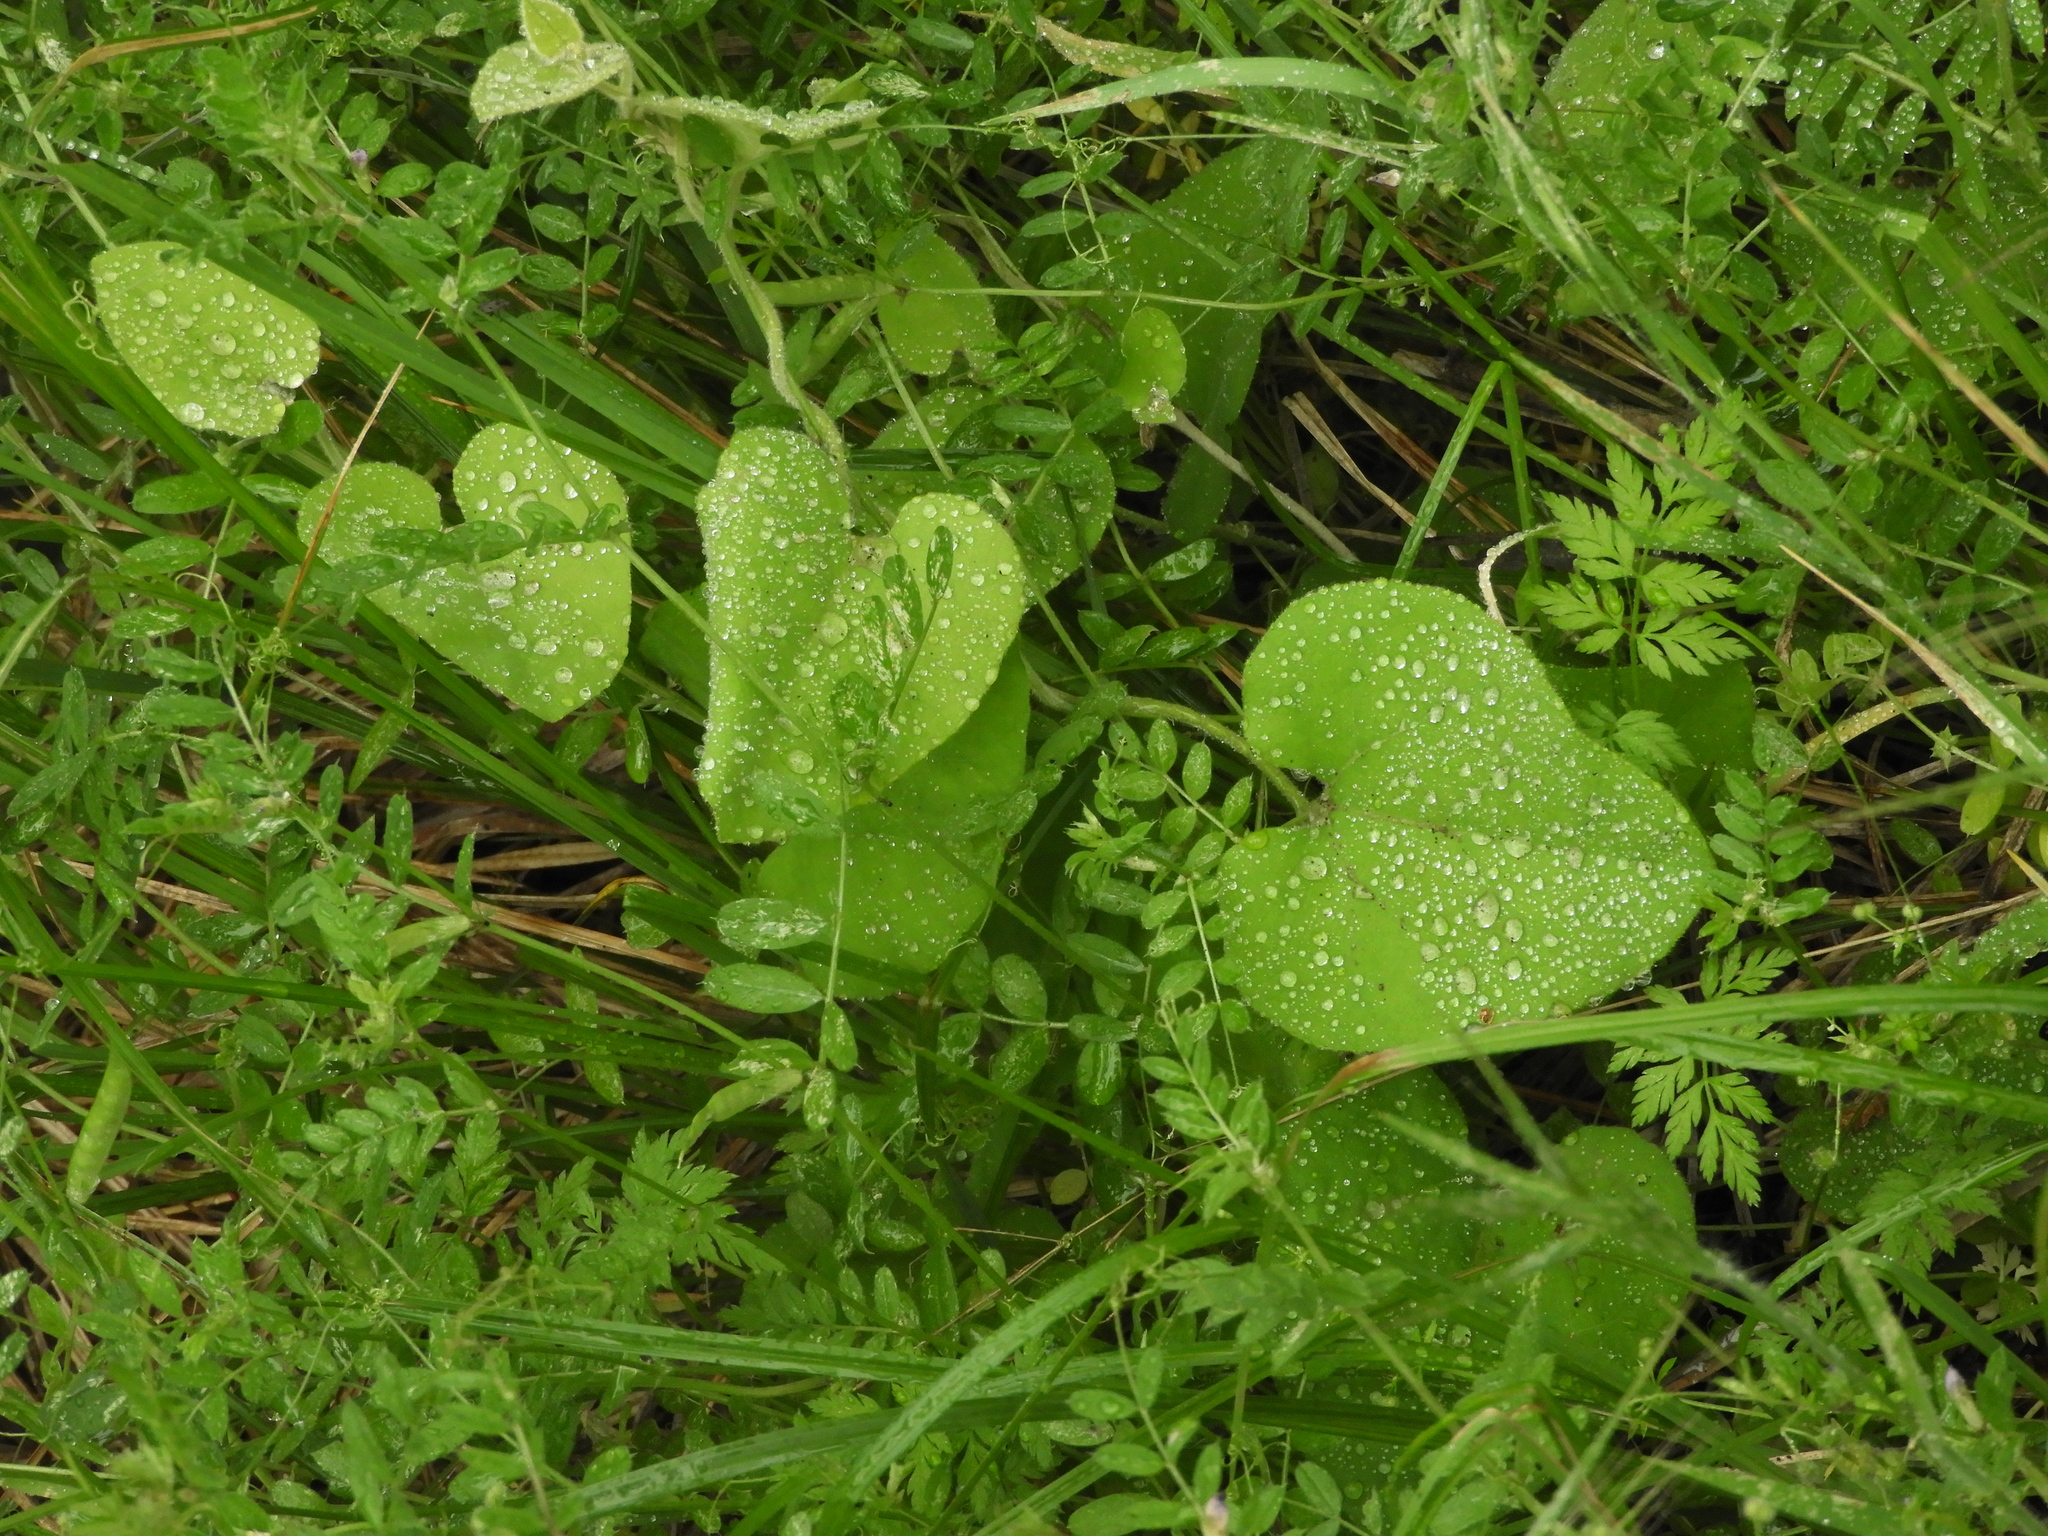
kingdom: Plantae
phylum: Tracheophyta
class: Magnoliopsida
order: Piperales
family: Aristolochiaceae
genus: Isotrema
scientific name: Isotrema californicum
